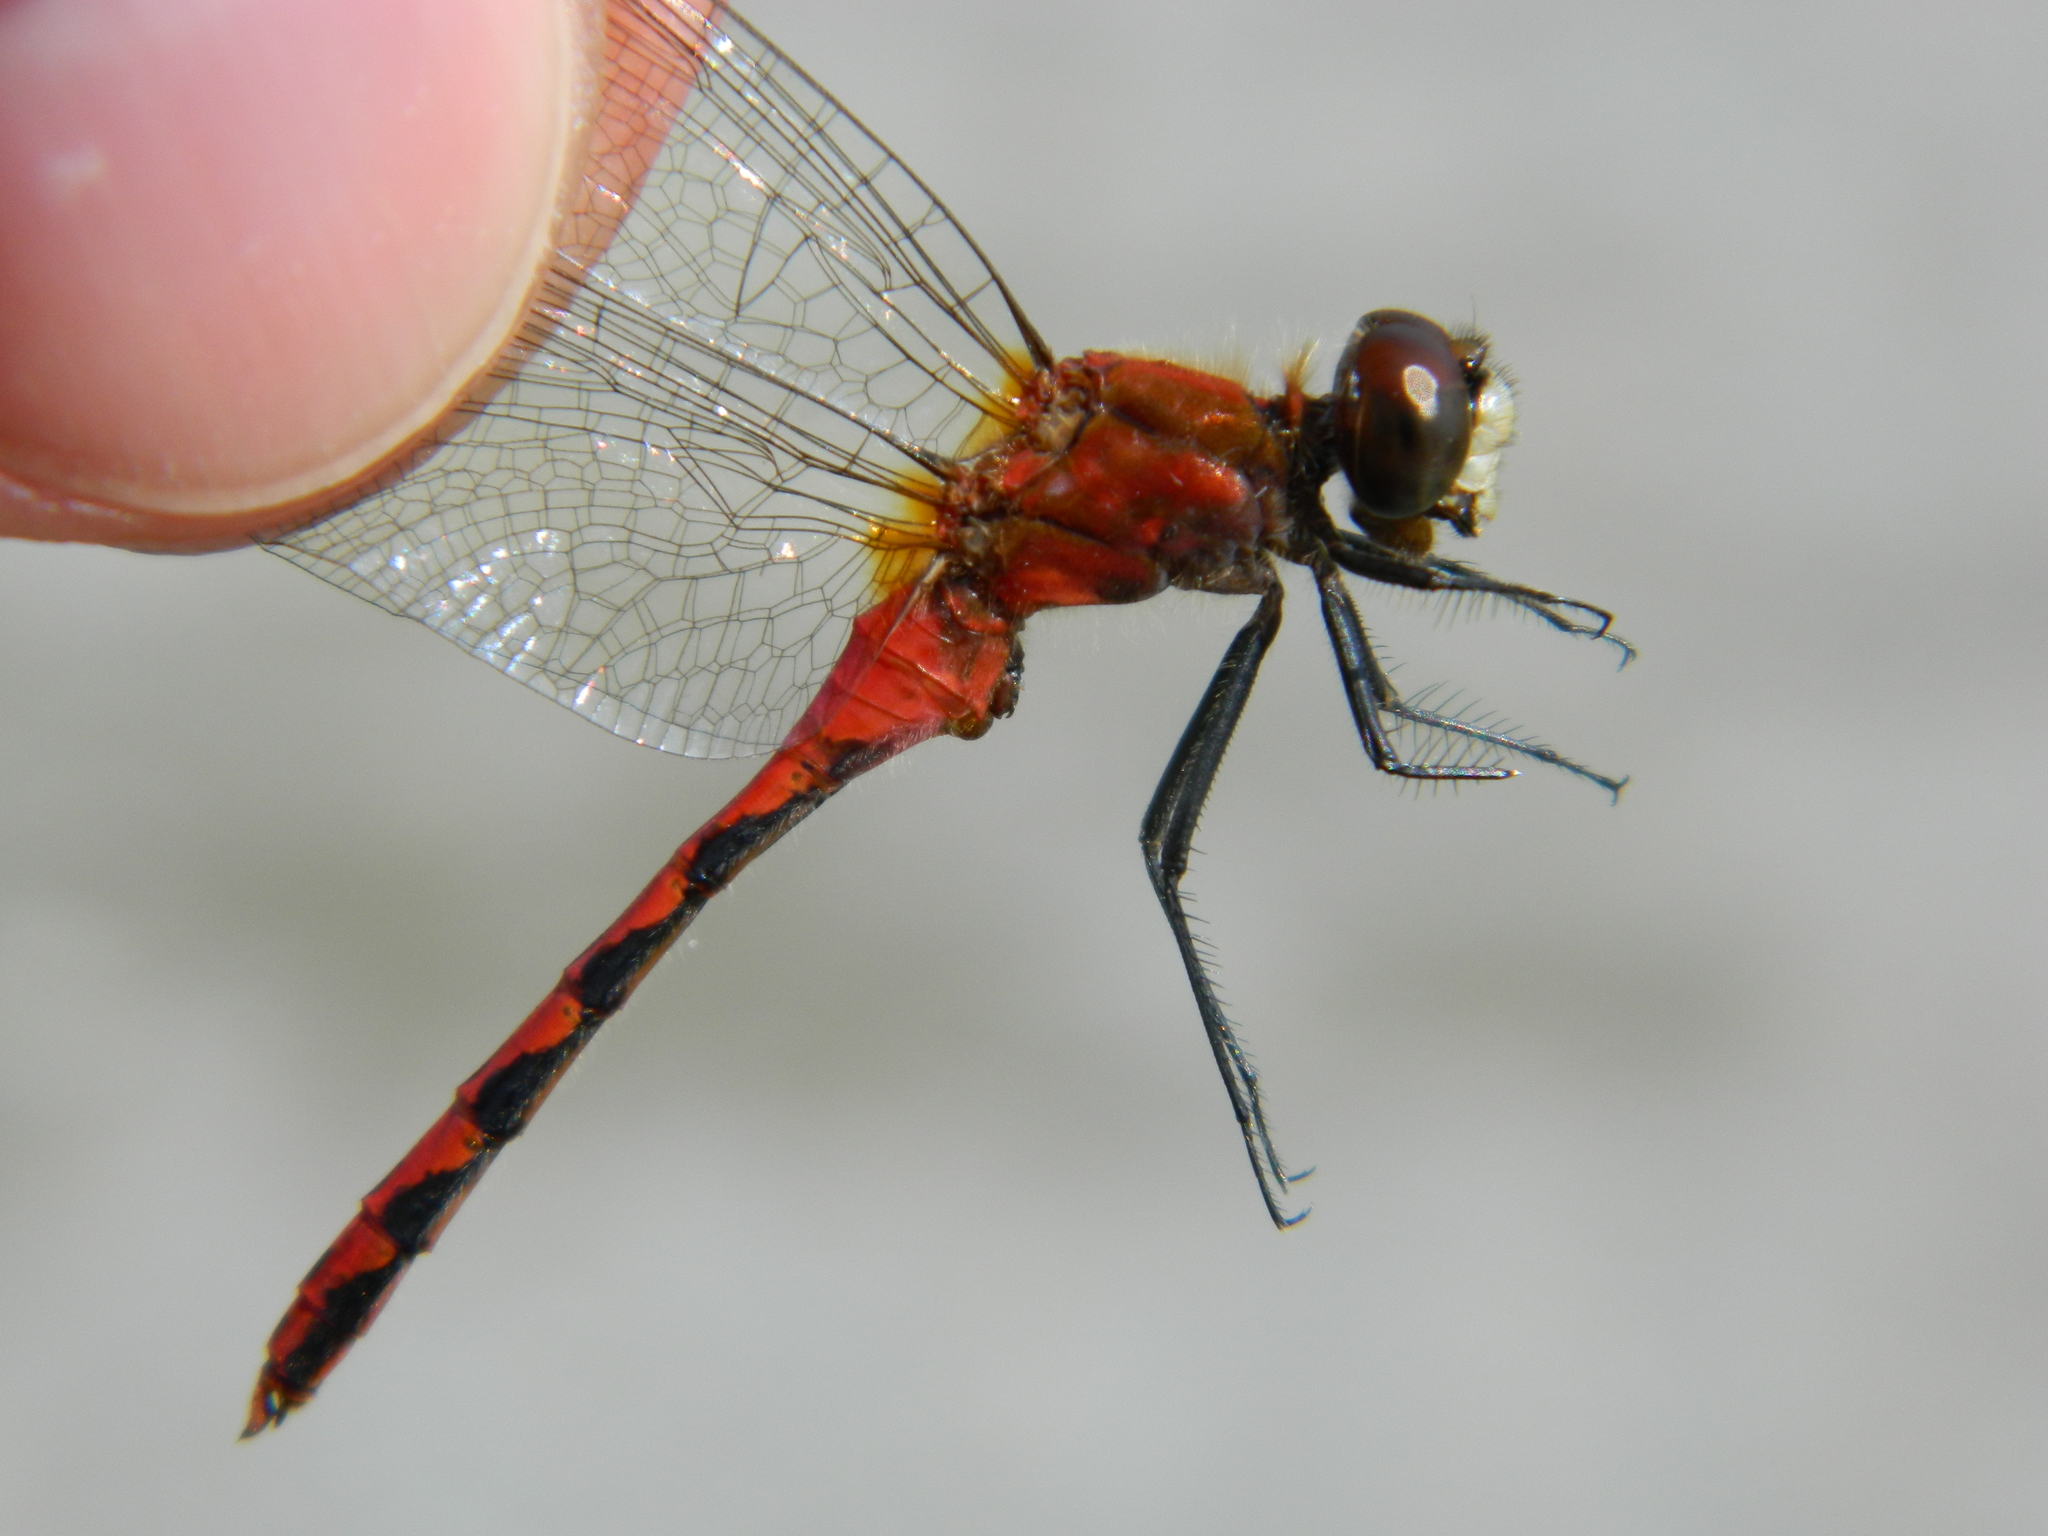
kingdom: Animalia
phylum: Arthropoda
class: Insecta
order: Odonata
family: Libellulidae
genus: Sympetrum
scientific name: Sympetrum obtrusum
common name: White-faced meadowhawk
